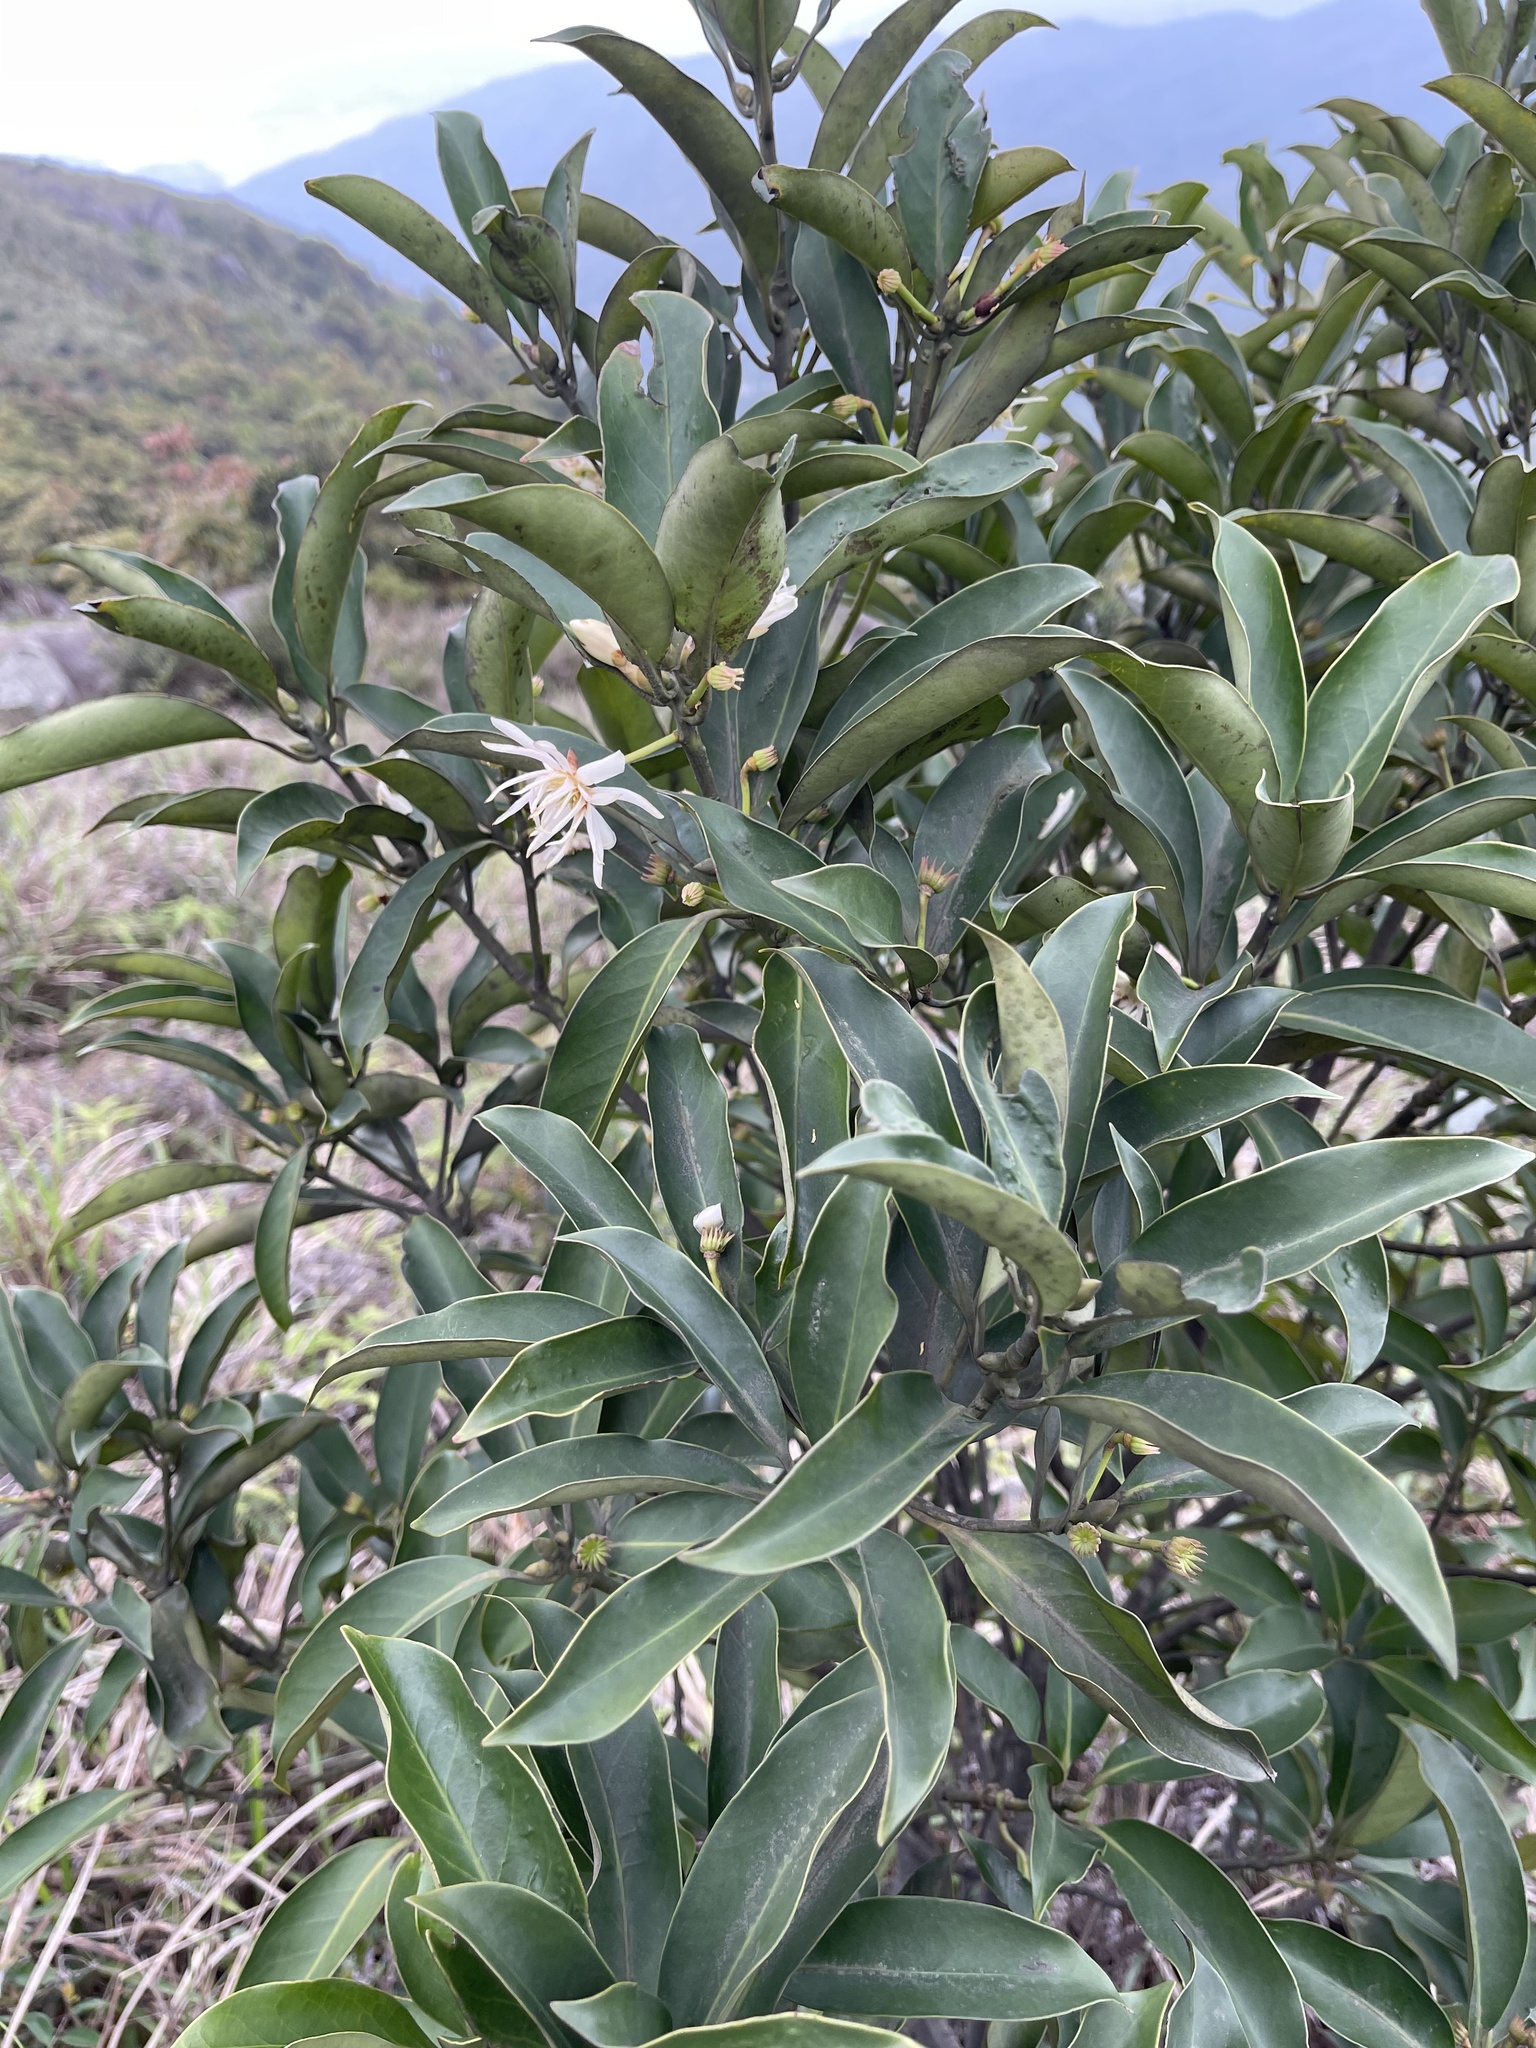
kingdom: Plantae
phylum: Tracheophyta
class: Magnoliopsida
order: Austrobaileyales
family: Schisandraceae
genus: Illicium
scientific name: Illicium angustisepalum
